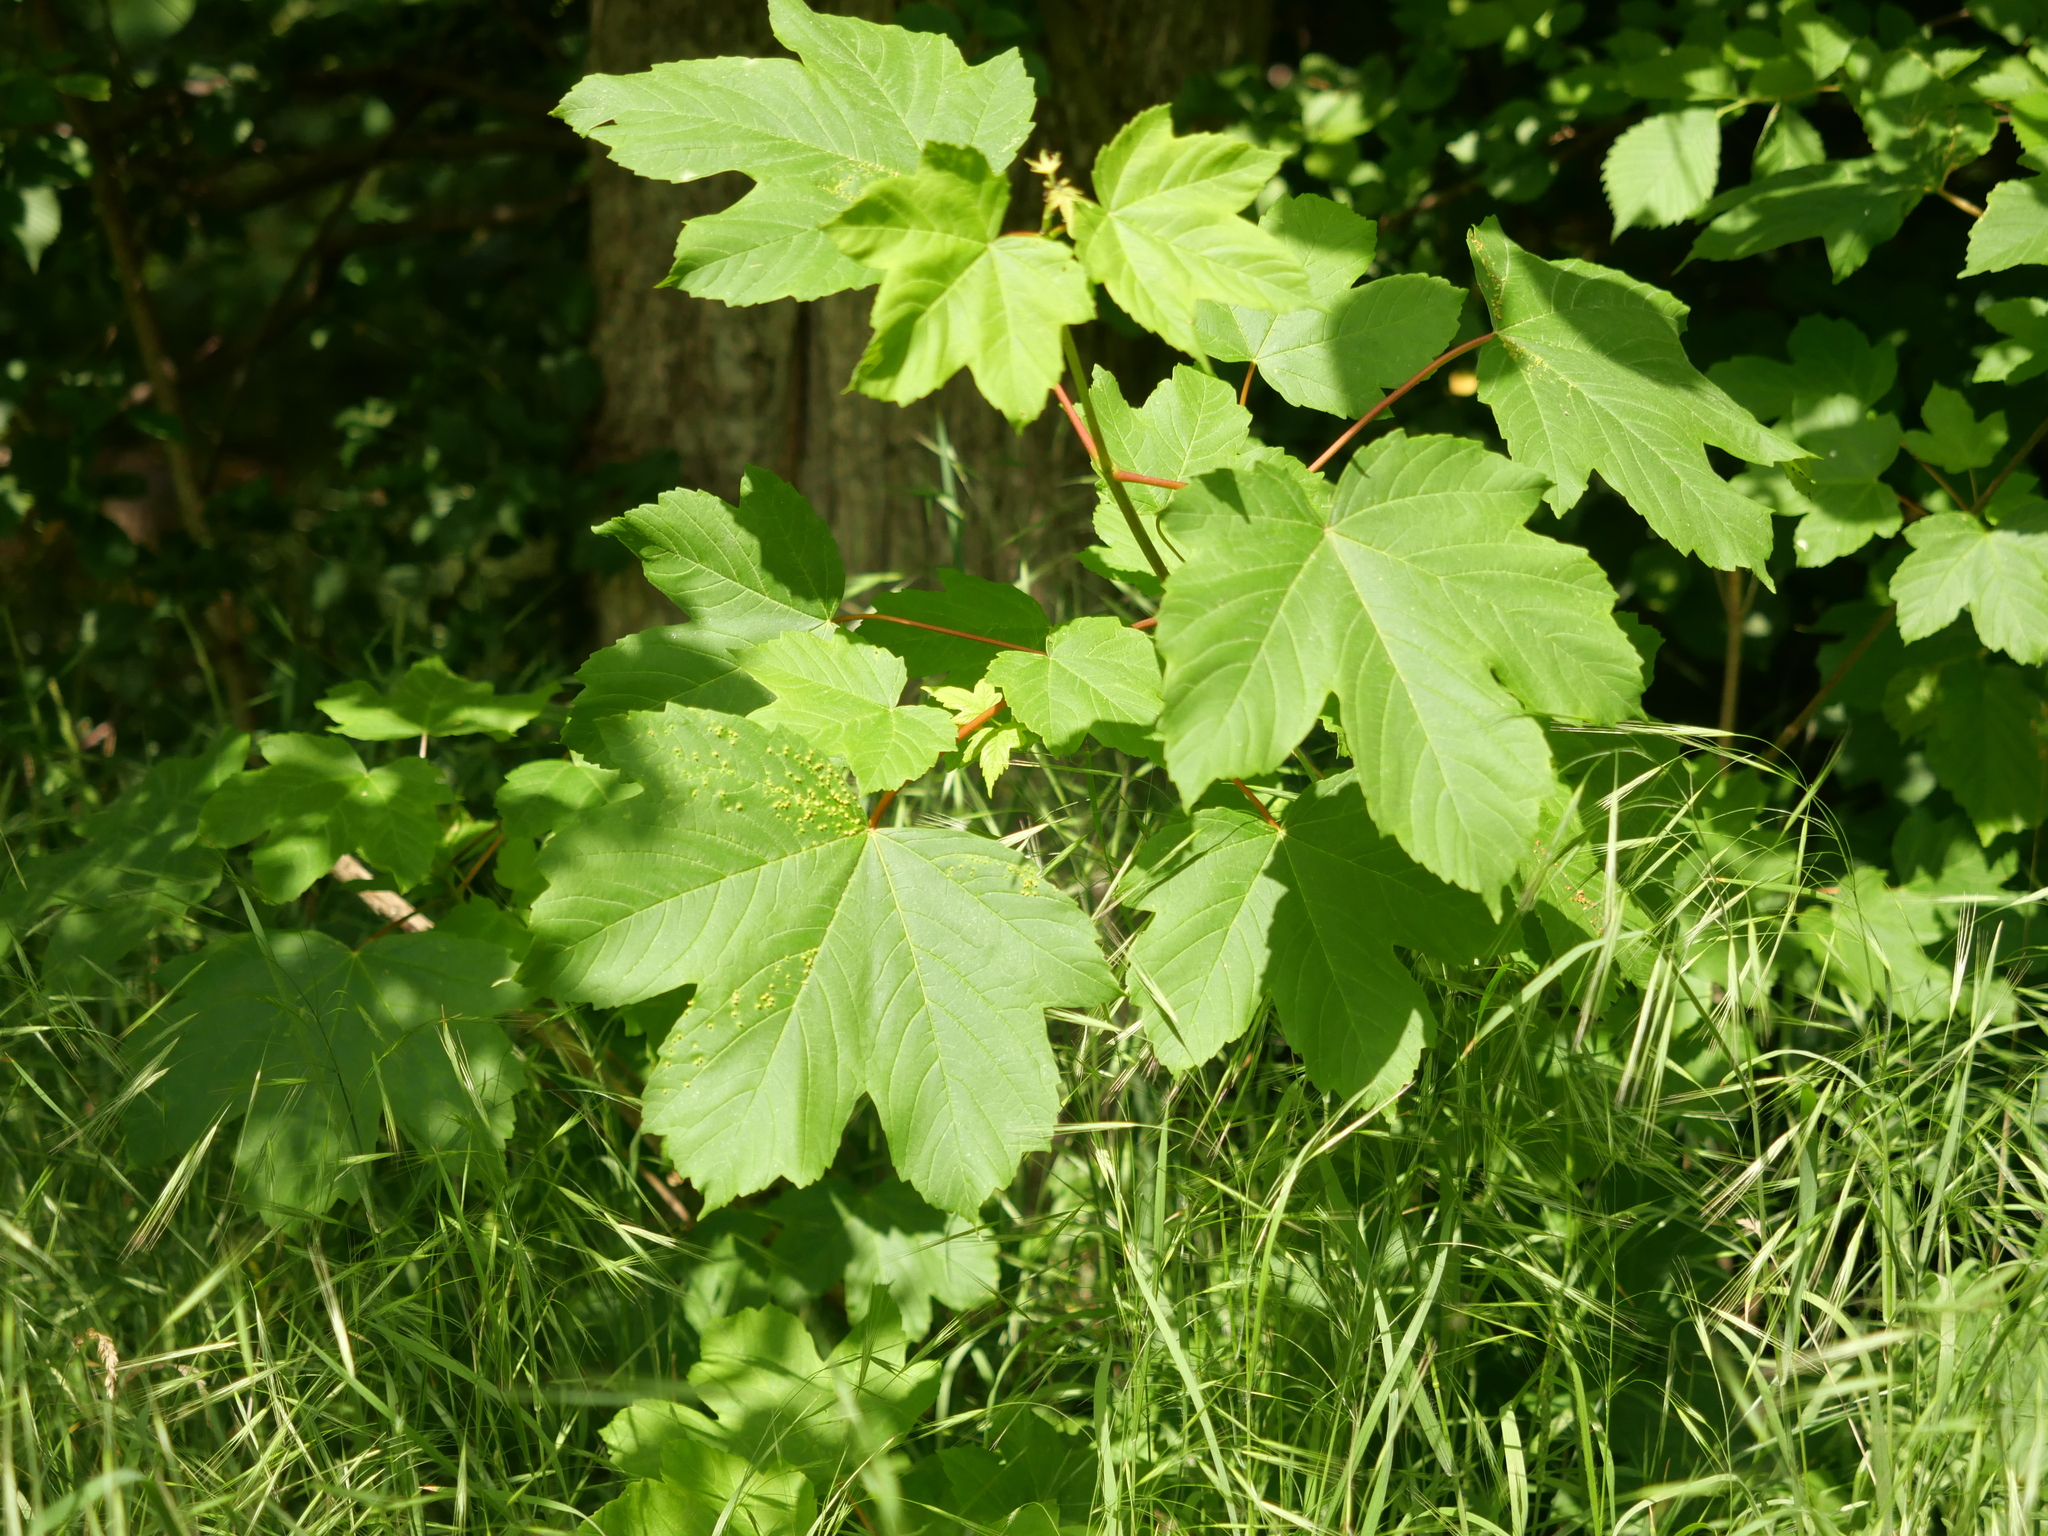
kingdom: Plantae
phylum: Tracheophyta
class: Magnoliopsida
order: Sapindales
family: Sapindaceae
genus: Acer
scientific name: Acer pseudoplatanus
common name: Sycamore
